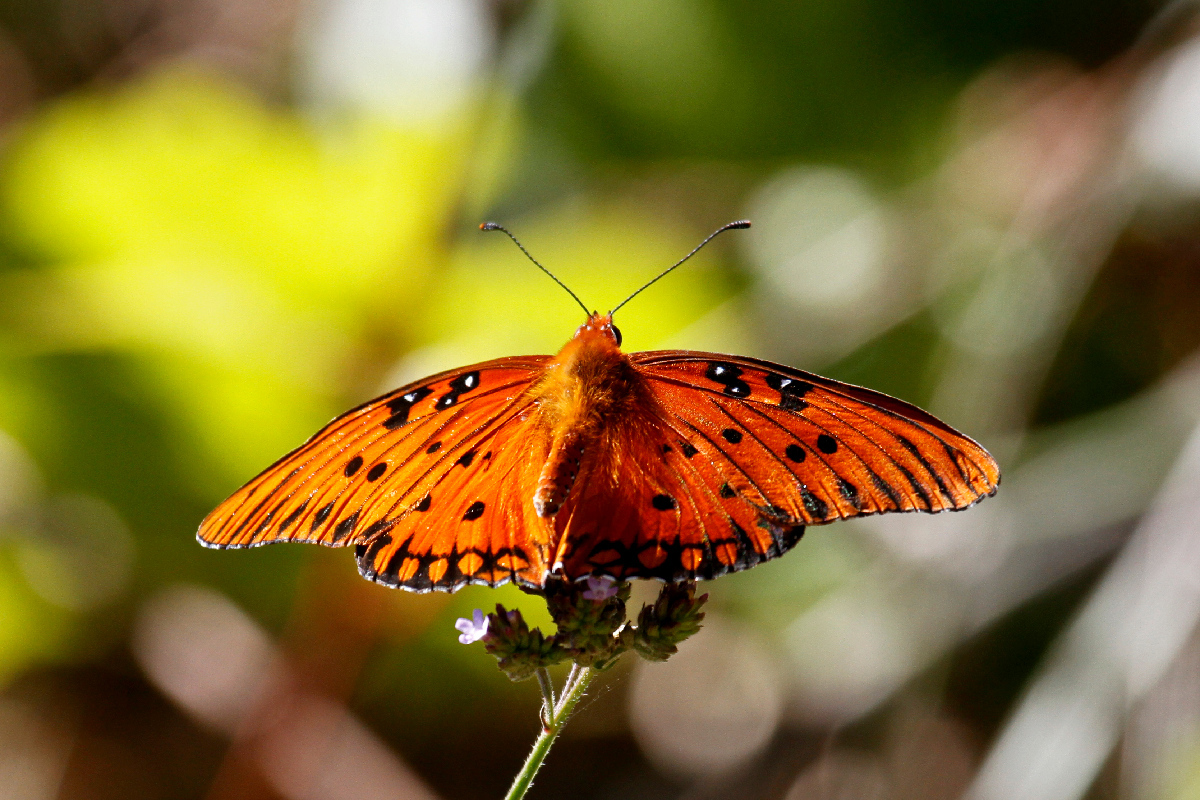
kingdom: Animalia
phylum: Arthropoda
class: Insecta
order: Lepidoptera
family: Nymphalidae
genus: Dione
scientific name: Dione vanillae
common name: Gulf fritillary
